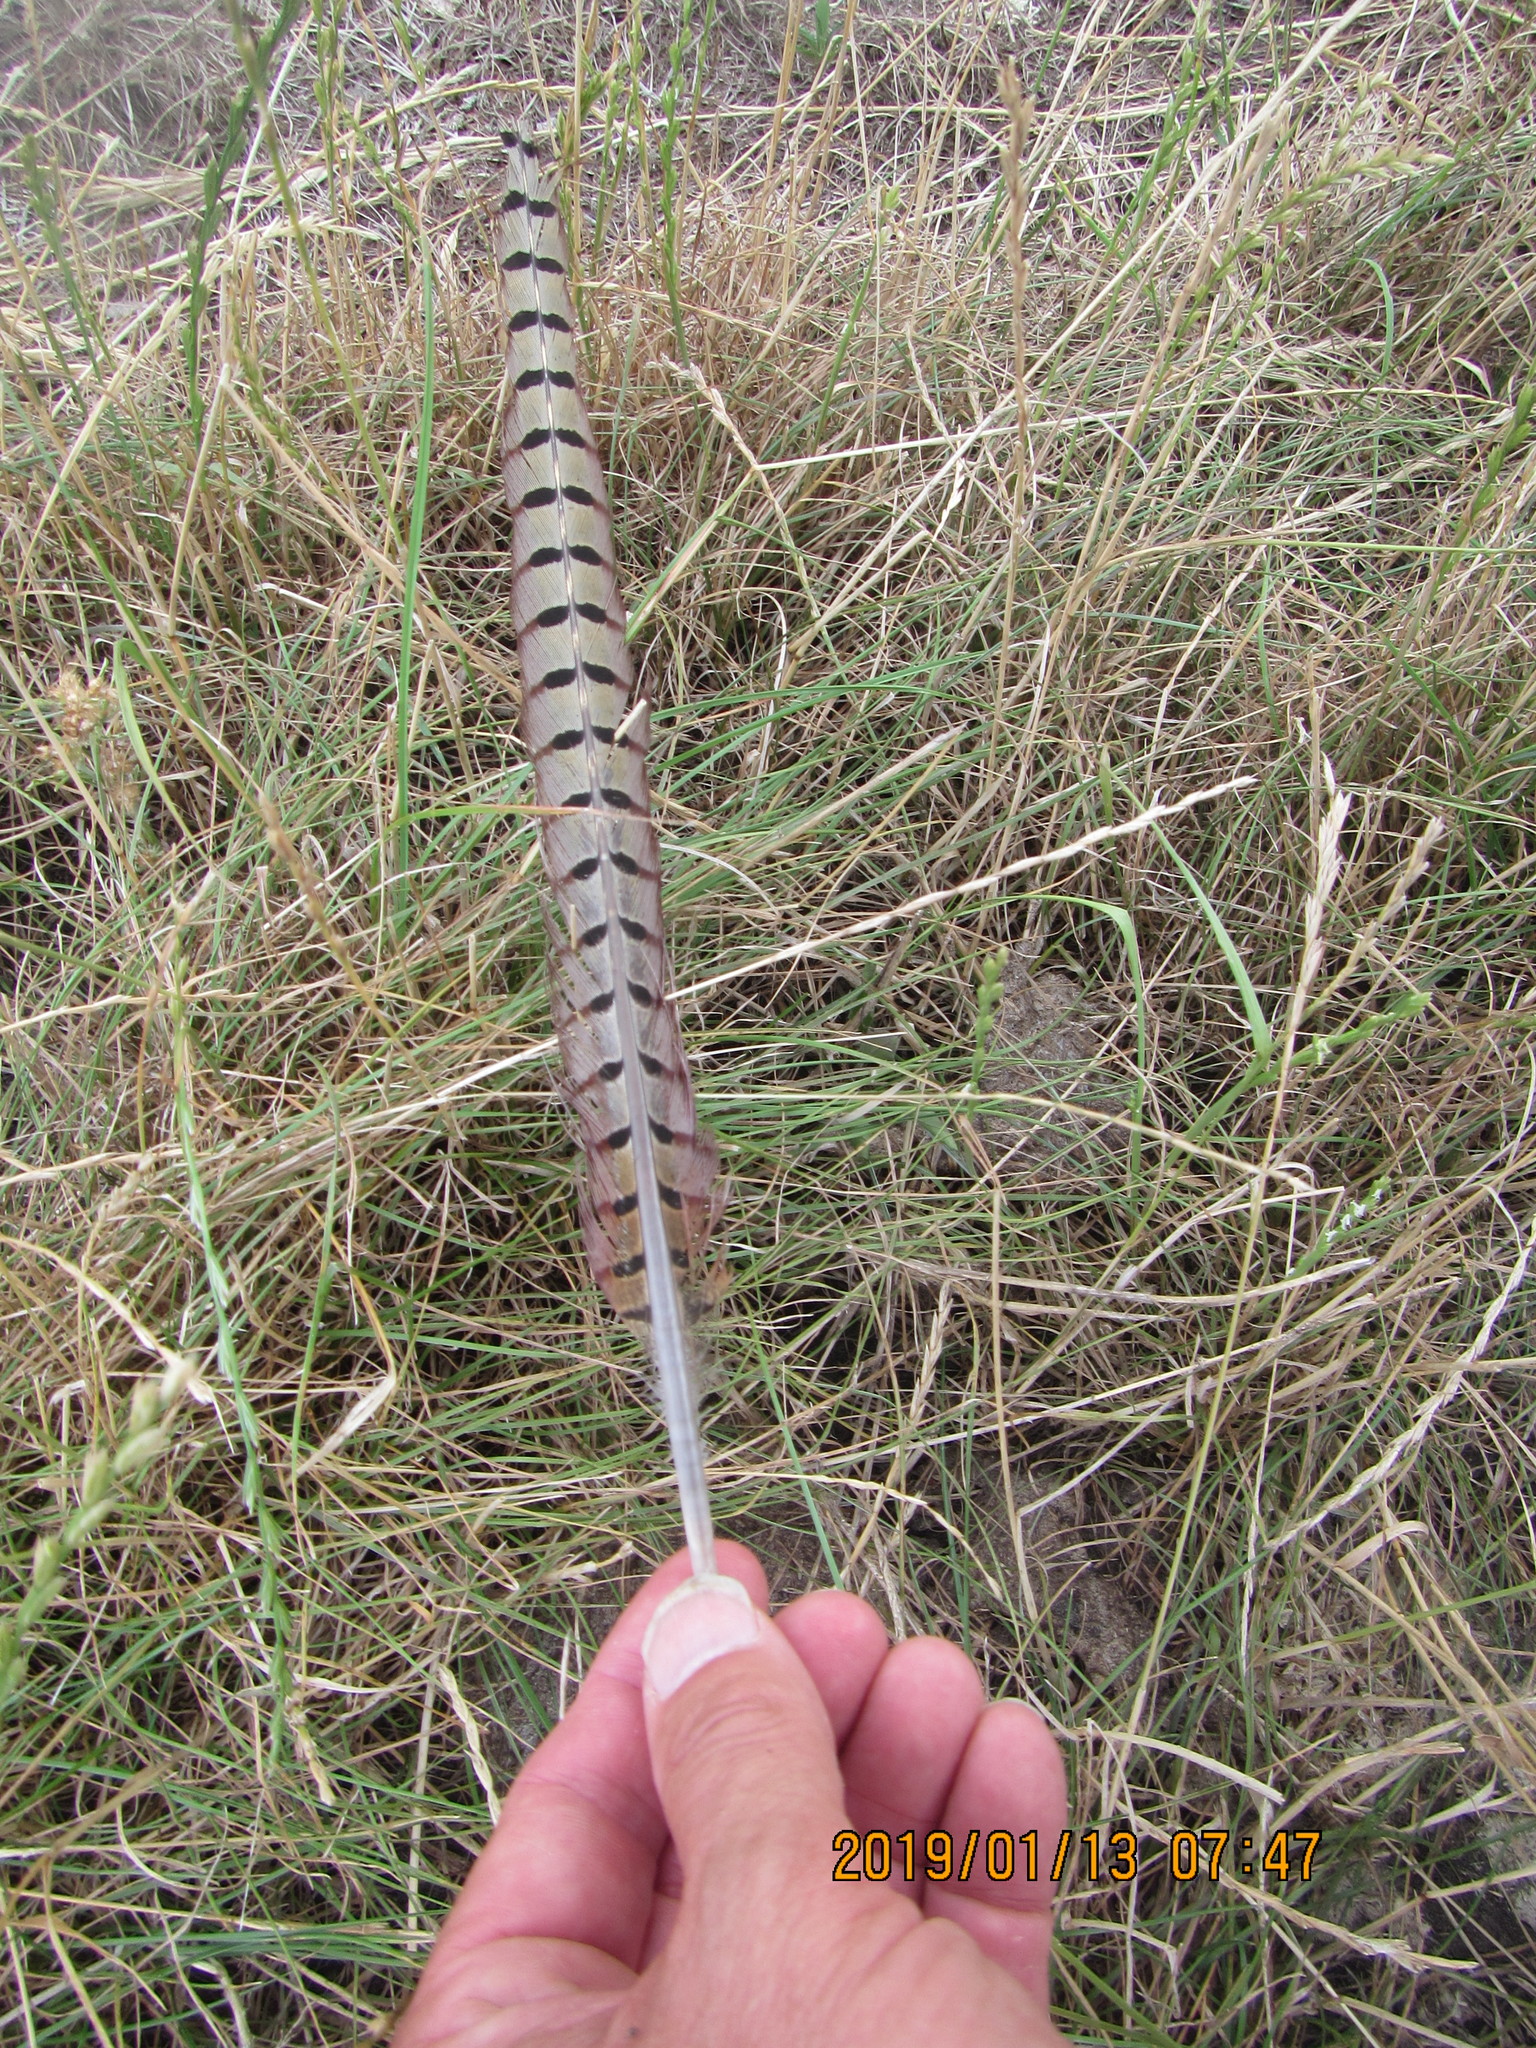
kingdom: Animalia
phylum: Chordata
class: Aves
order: Galliformes
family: Phasianidae
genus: Phasianus
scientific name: Phasianus colchicus
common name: Common pheasant
